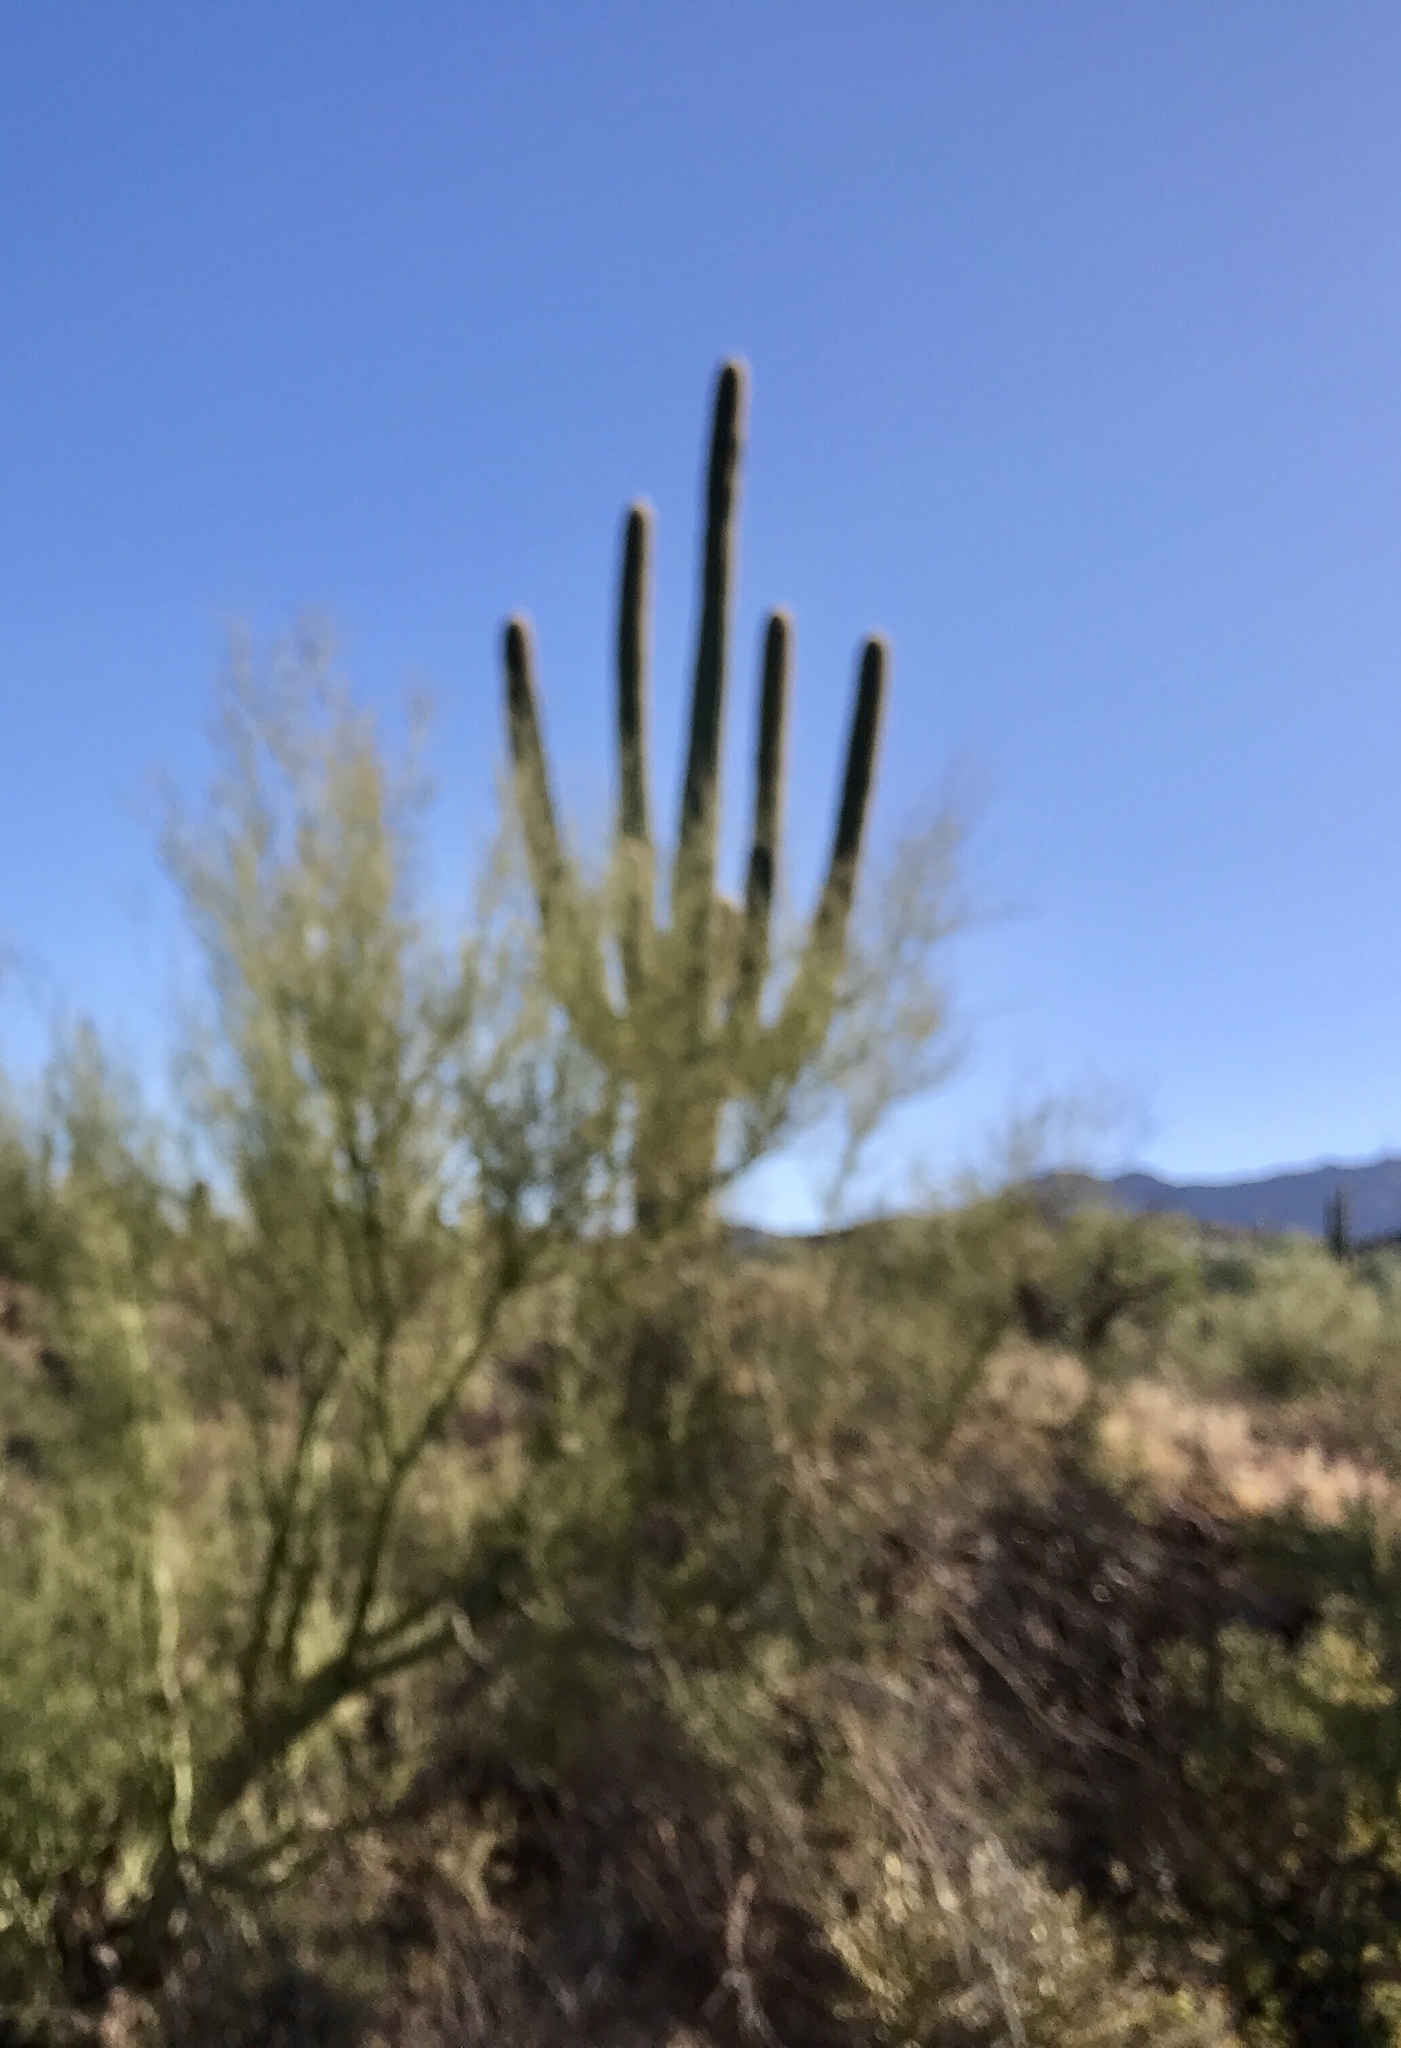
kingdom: Plantae
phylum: Tracheophyta
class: Magnoliopsida
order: Caryophyllales
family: Cactaceae
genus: Carnegiea
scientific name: Carnegiea gigantea
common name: Saguaro
